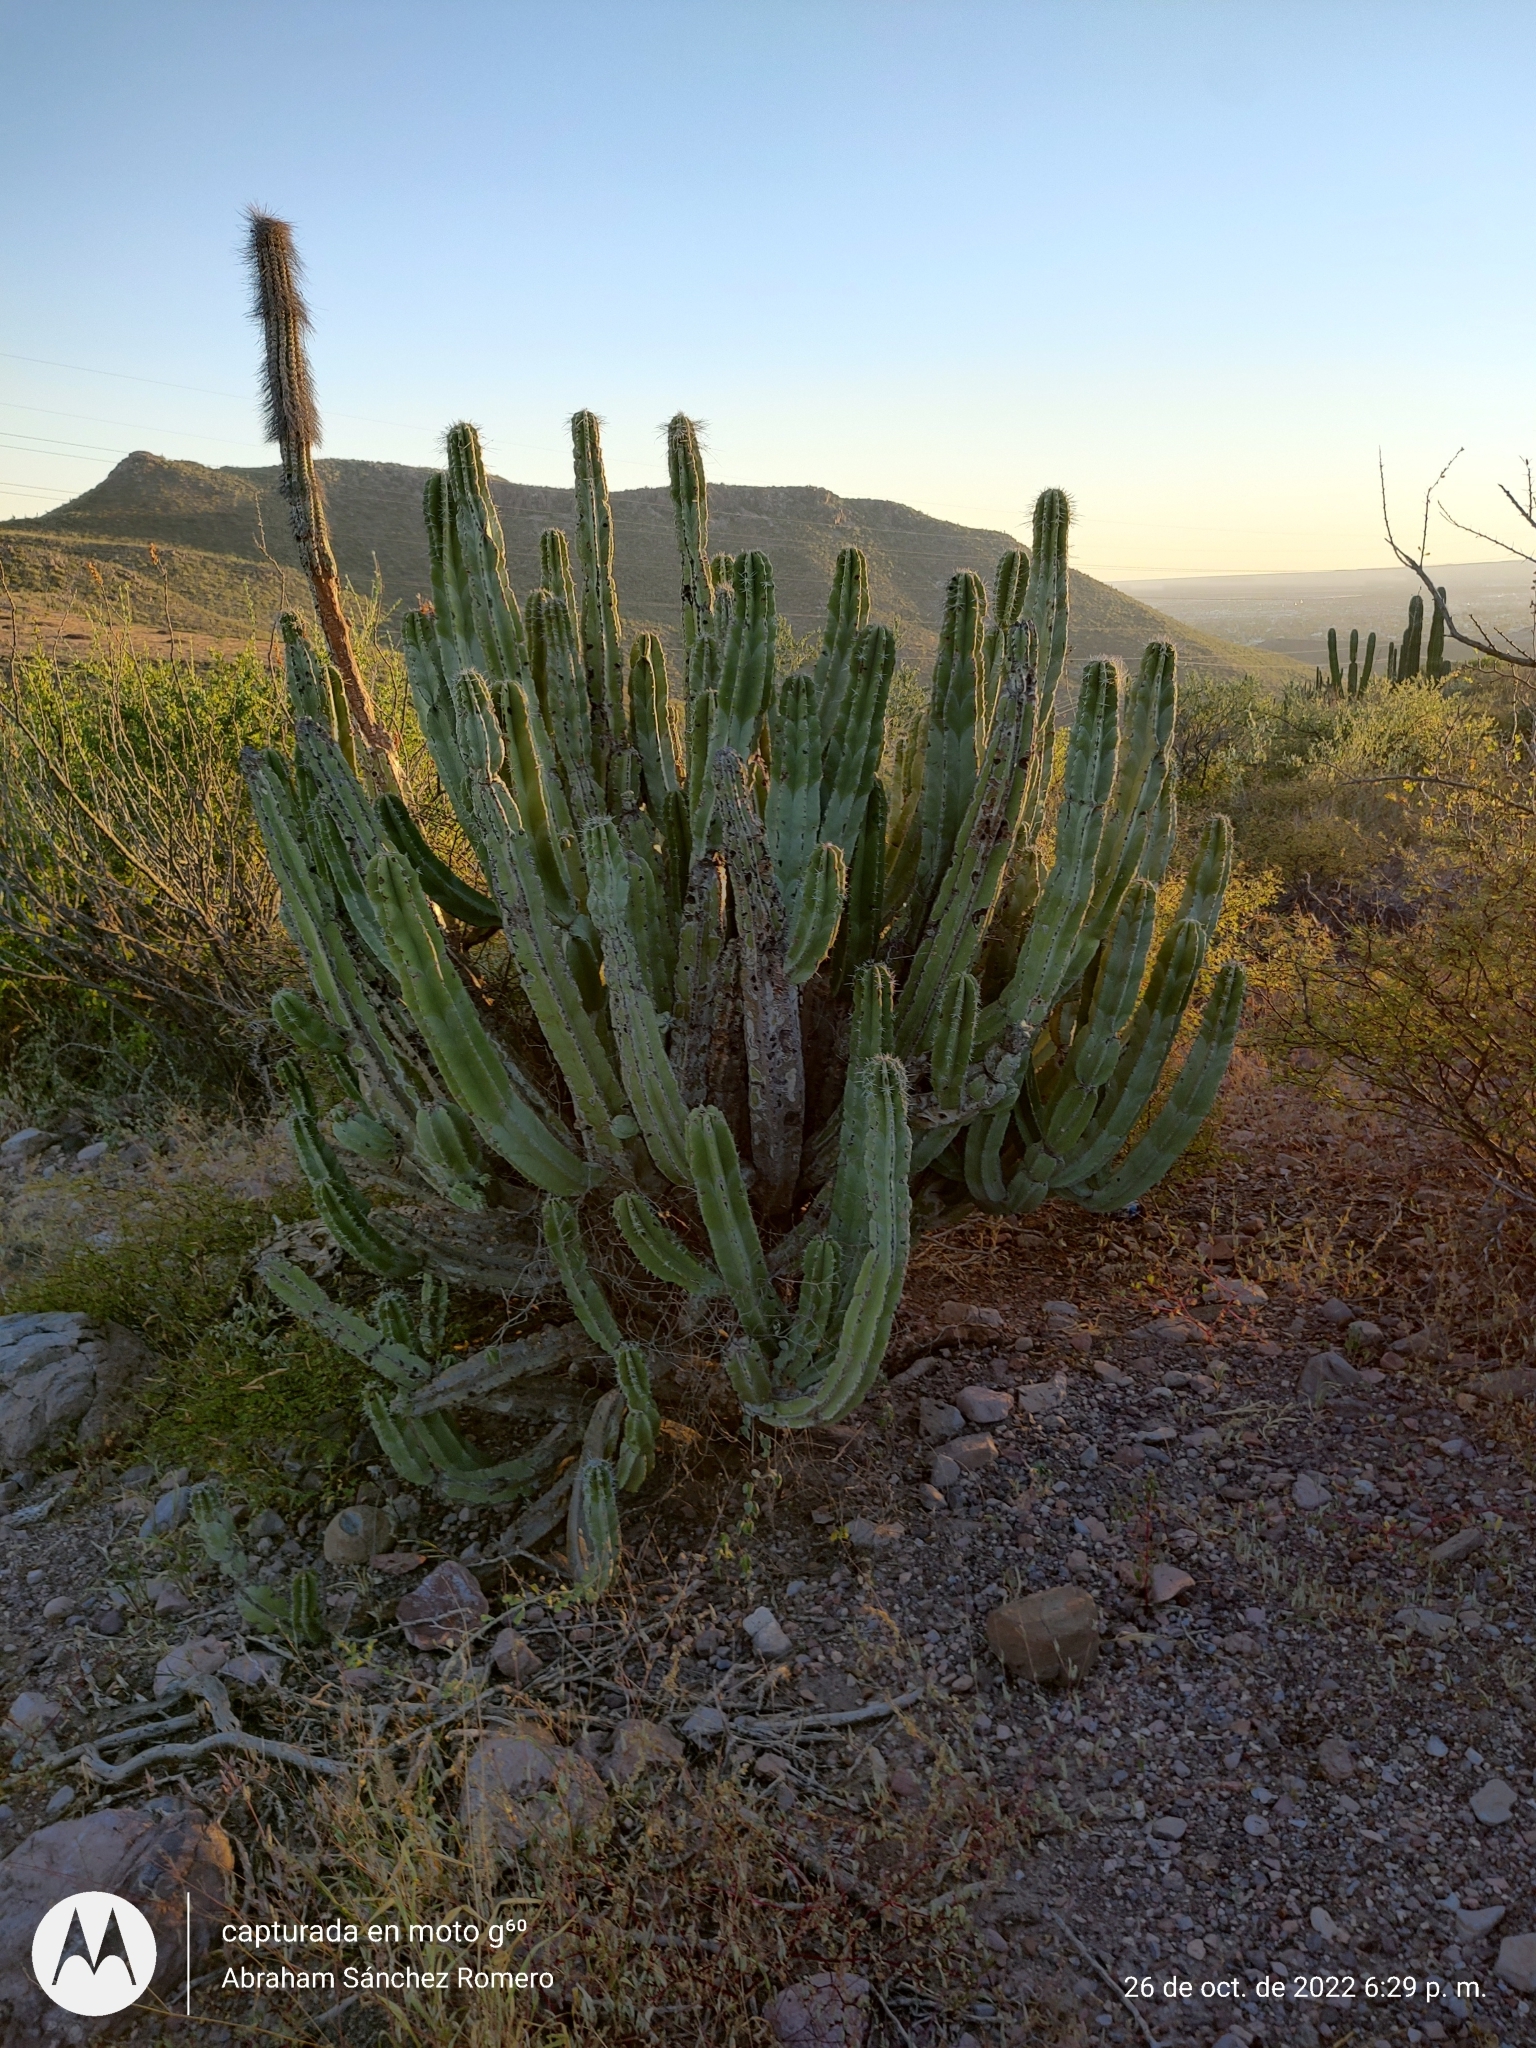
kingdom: Plantae
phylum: Tracheophyta
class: Magnoliopsida
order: Caryophyllales
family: Cactaceae
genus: Pachycereus
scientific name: Pachycereus schottii
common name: Senita cactus
